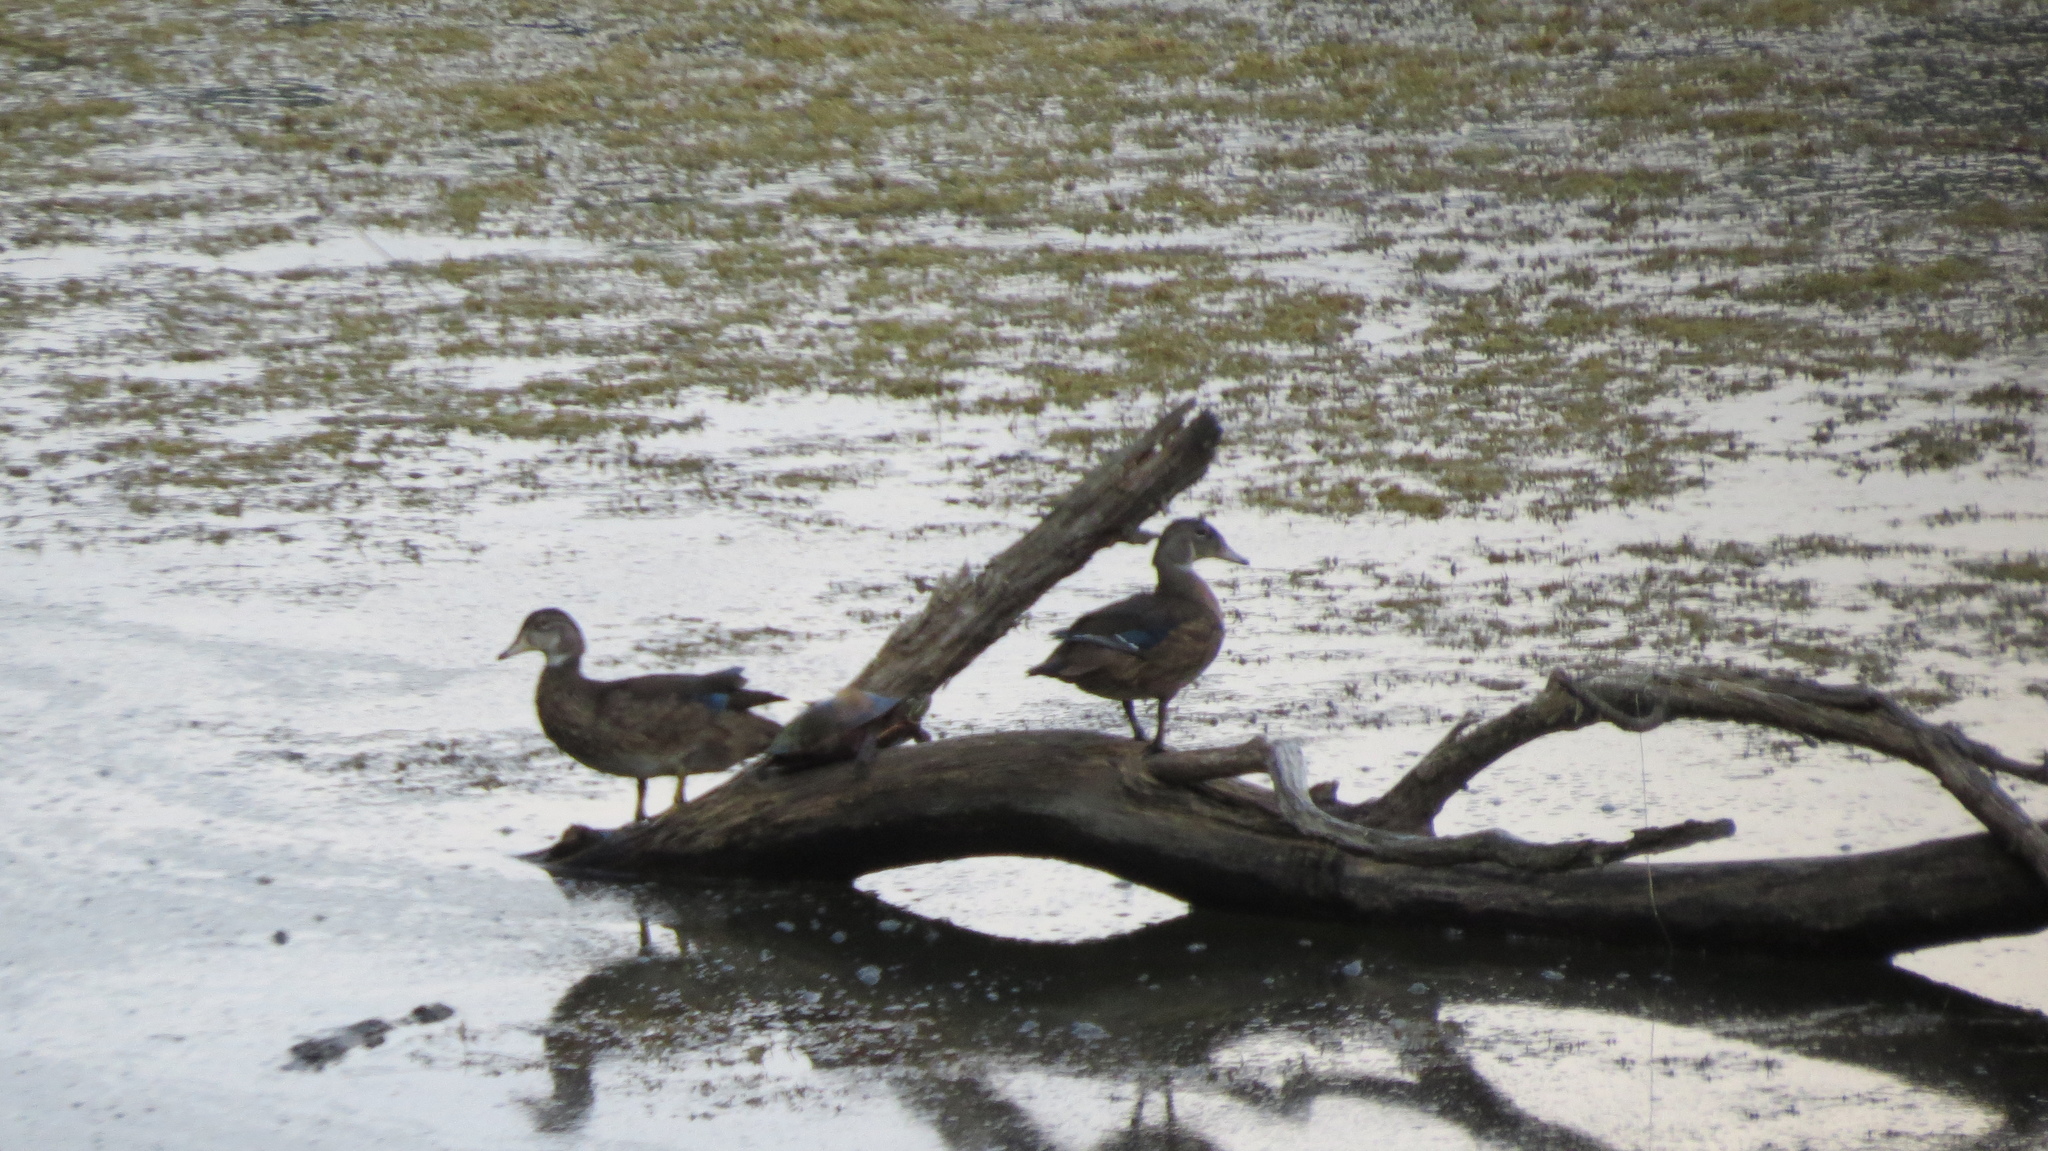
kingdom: Animalia
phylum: Chordata
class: Aves
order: Anseriformes
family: Anatidae
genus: Aix
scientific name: Aix sponsa
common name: Wood duck
